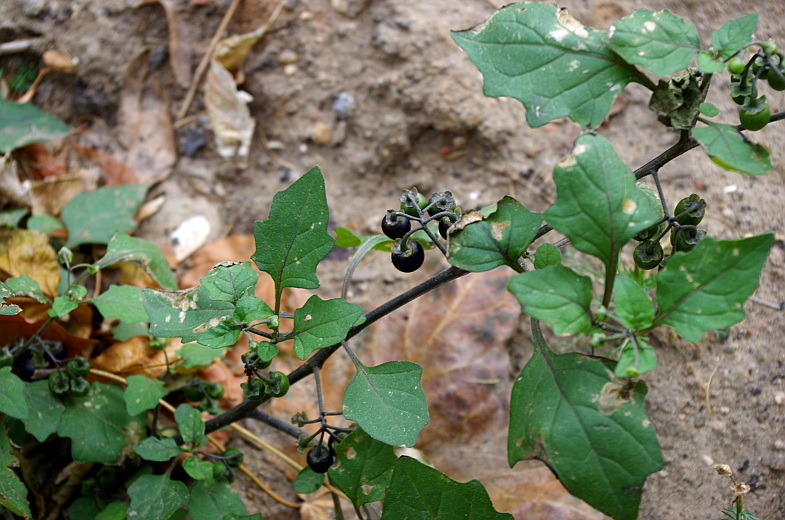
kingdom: Plantae
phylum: Tracheophyta
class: Magnoliopsida
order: Solanales
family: Solanaceae
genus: Solanum
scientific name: Solanum nigrum
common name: Black nightshade
